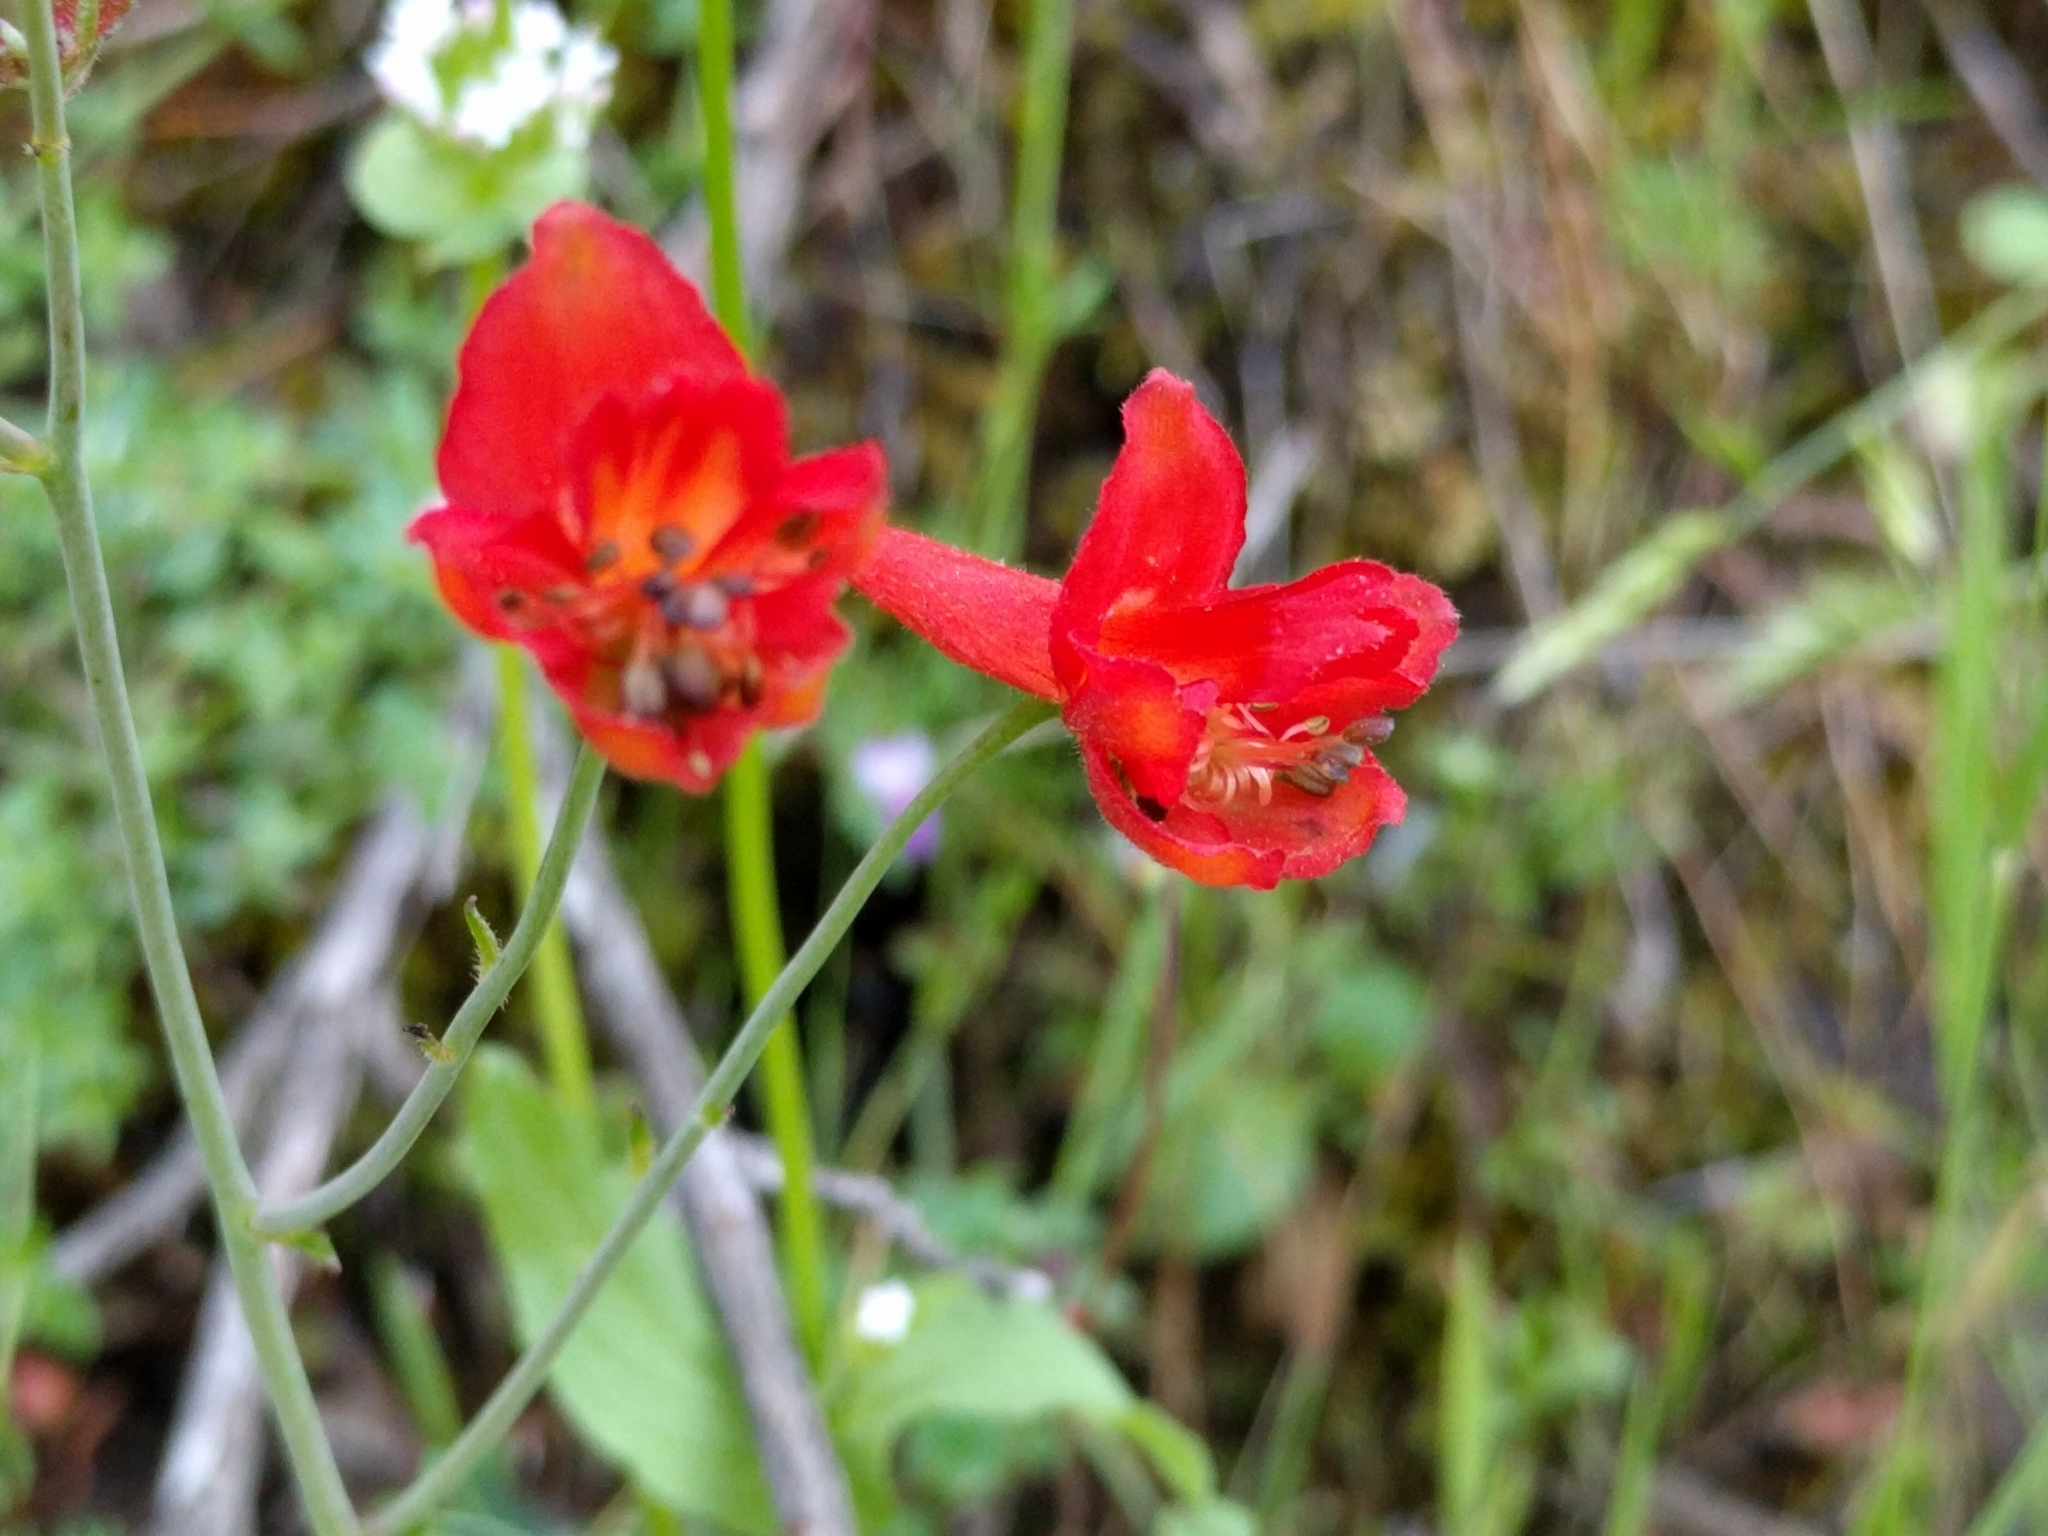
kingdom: Plantae
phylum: Tracheophyta
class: Magnoliopsida
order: Ranunculales
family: Ranunculaceae
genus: Delphinium
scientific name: Delphinium nudicaule
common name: Red larkspur
